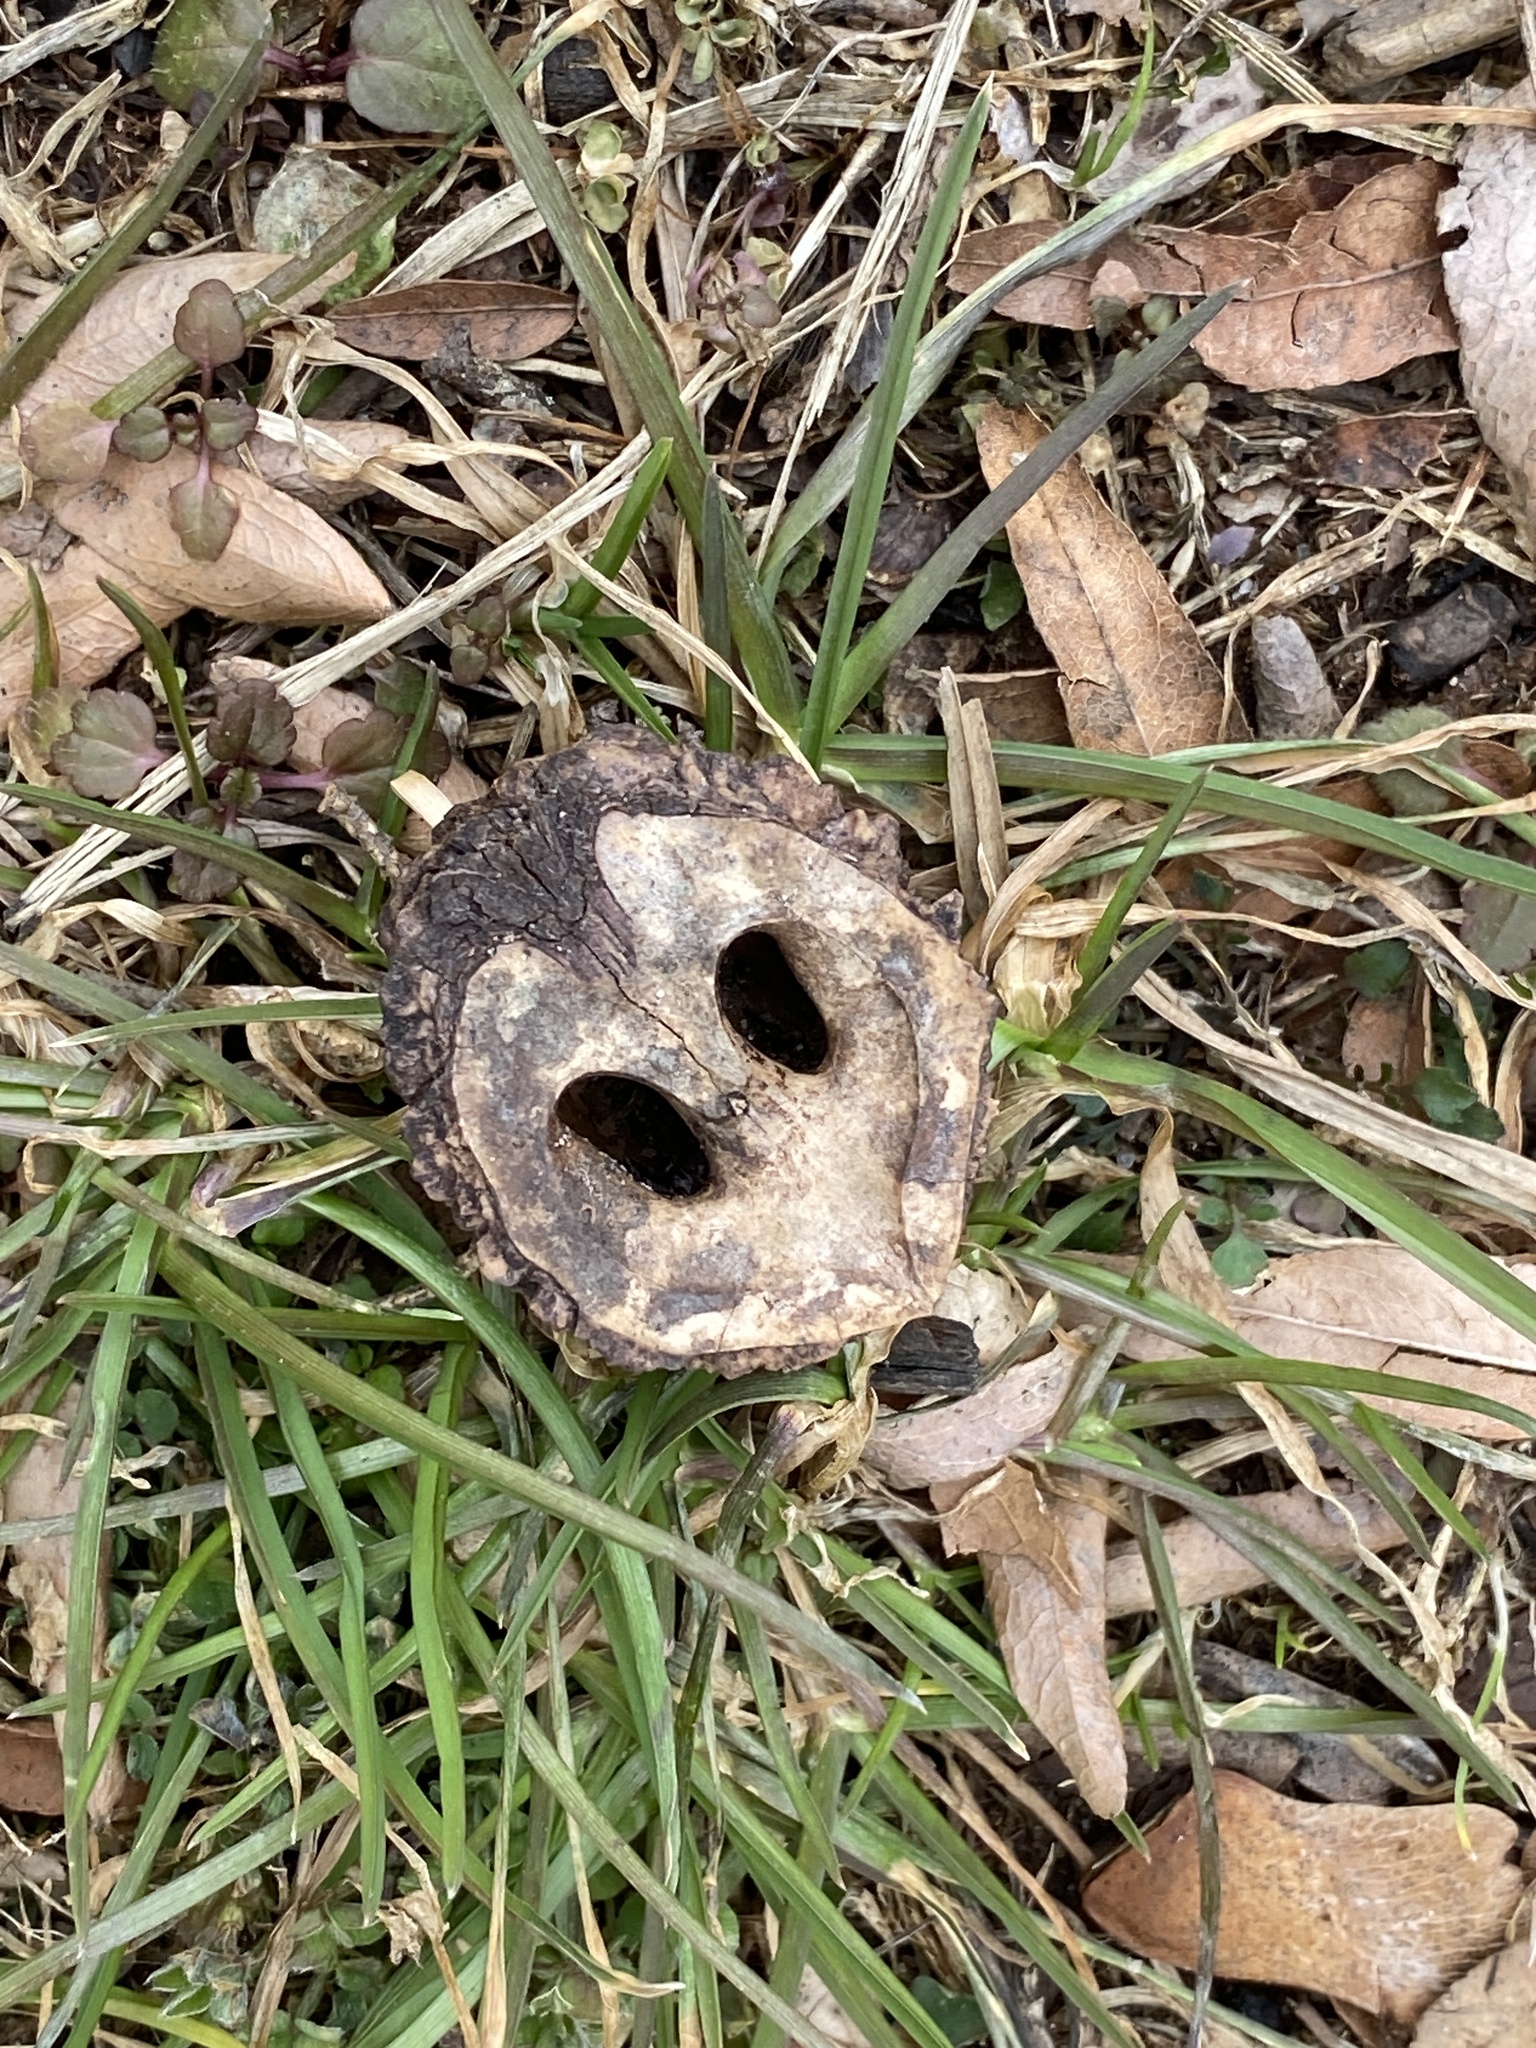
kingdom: Plantae
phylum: Tracheophyta
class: Magnoliopsida
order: Fagales
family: Juglandaceae
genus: Juglans
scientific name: Juglans nigra
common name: Black walnut
